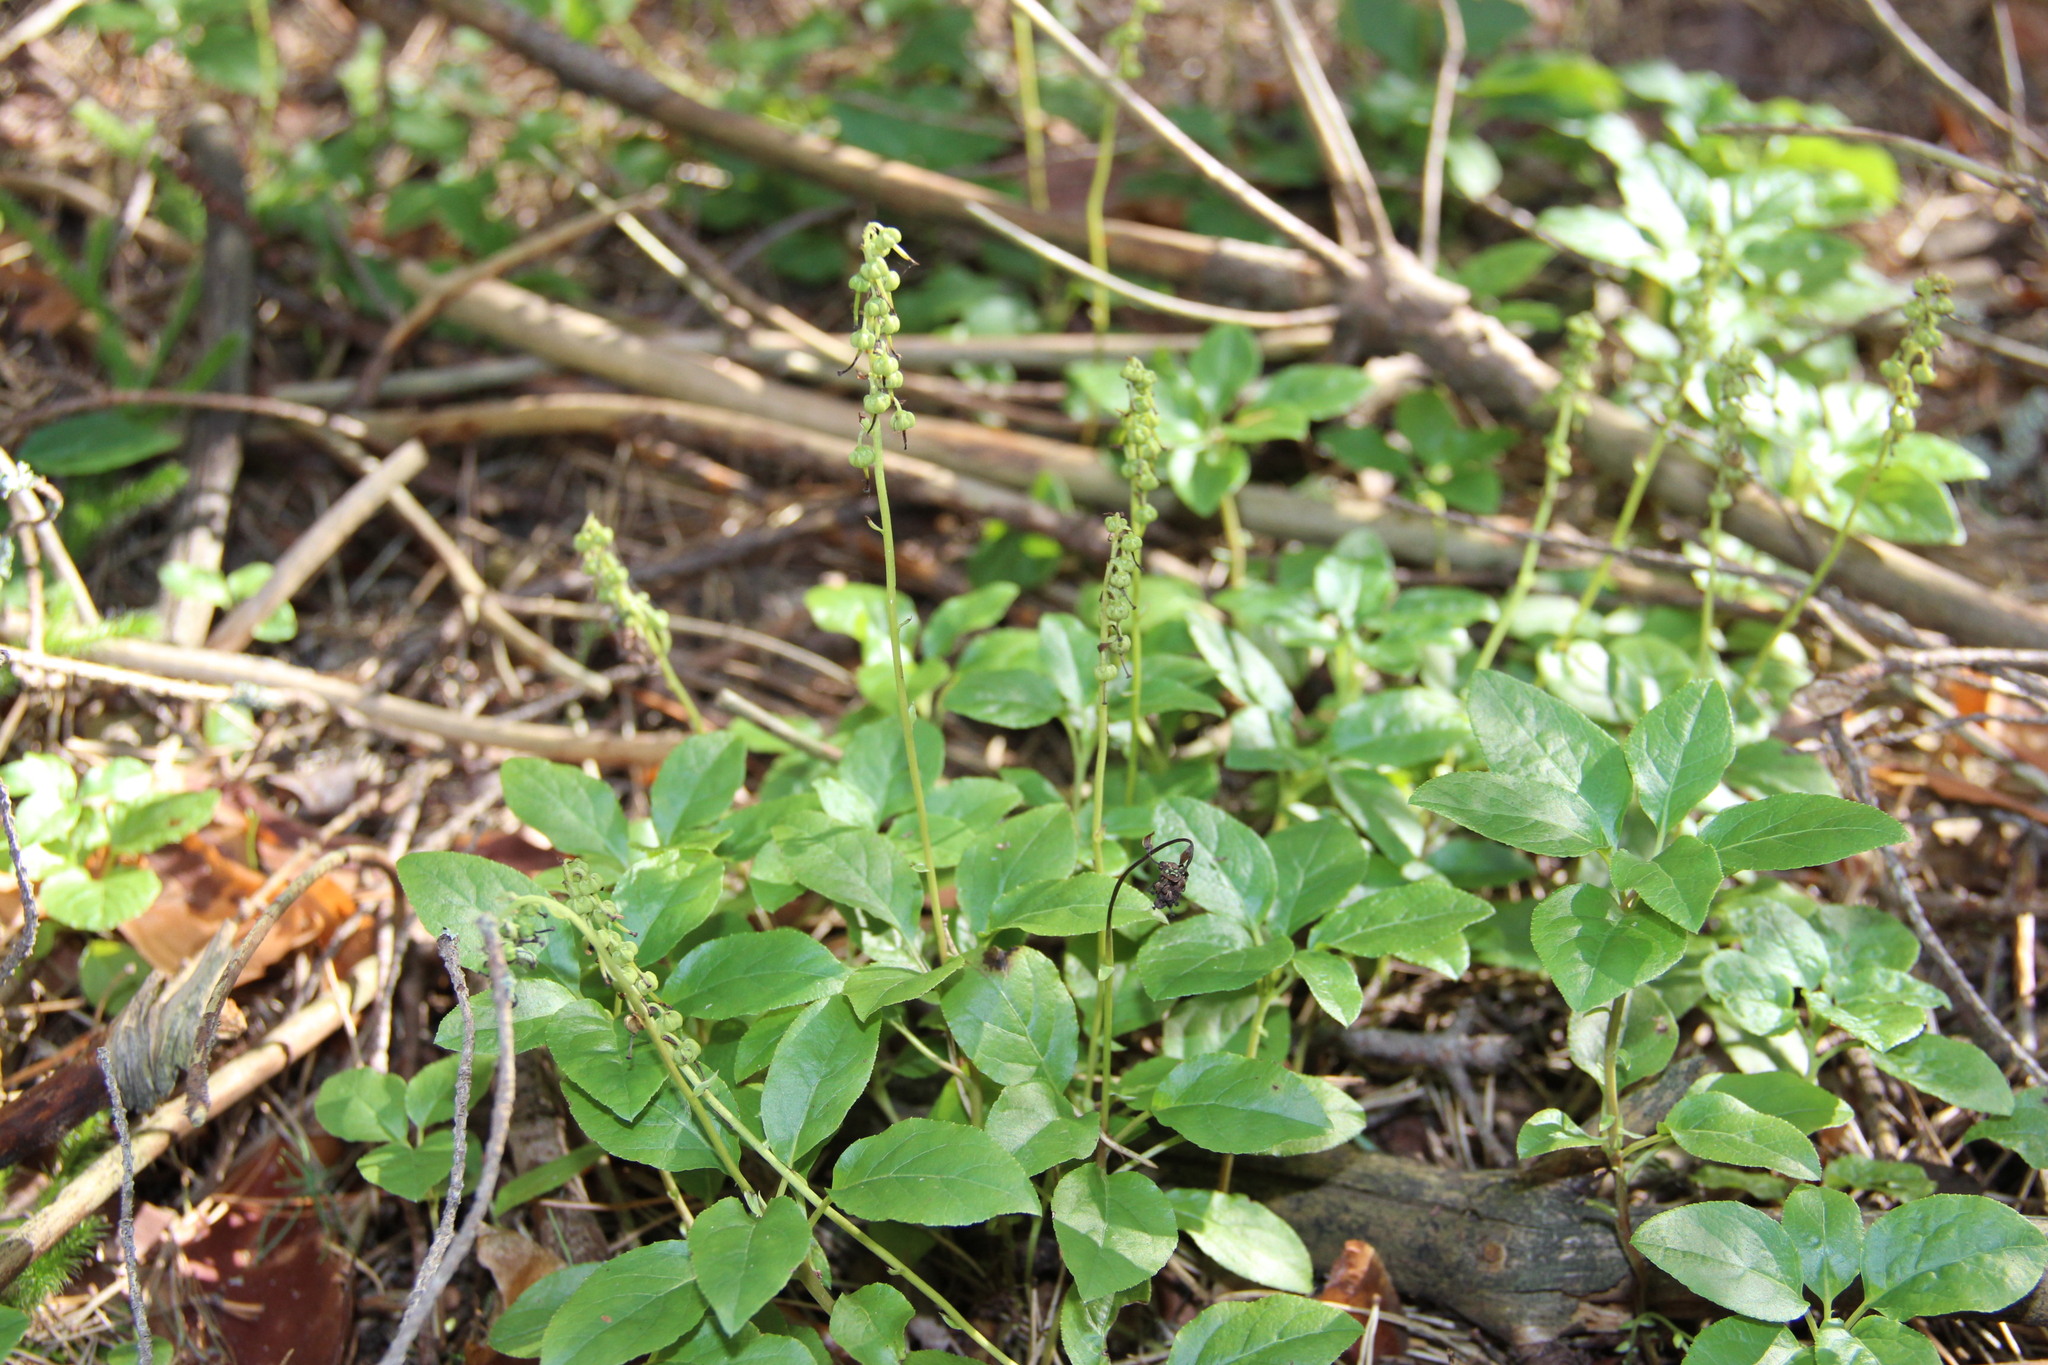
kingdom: Plantae
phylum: Tracheophyta
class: Magnoliopsida
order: Ericales
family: Ericaceae
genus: Orthilia
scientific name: Orthilia secunda
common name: One-sided orthilia
